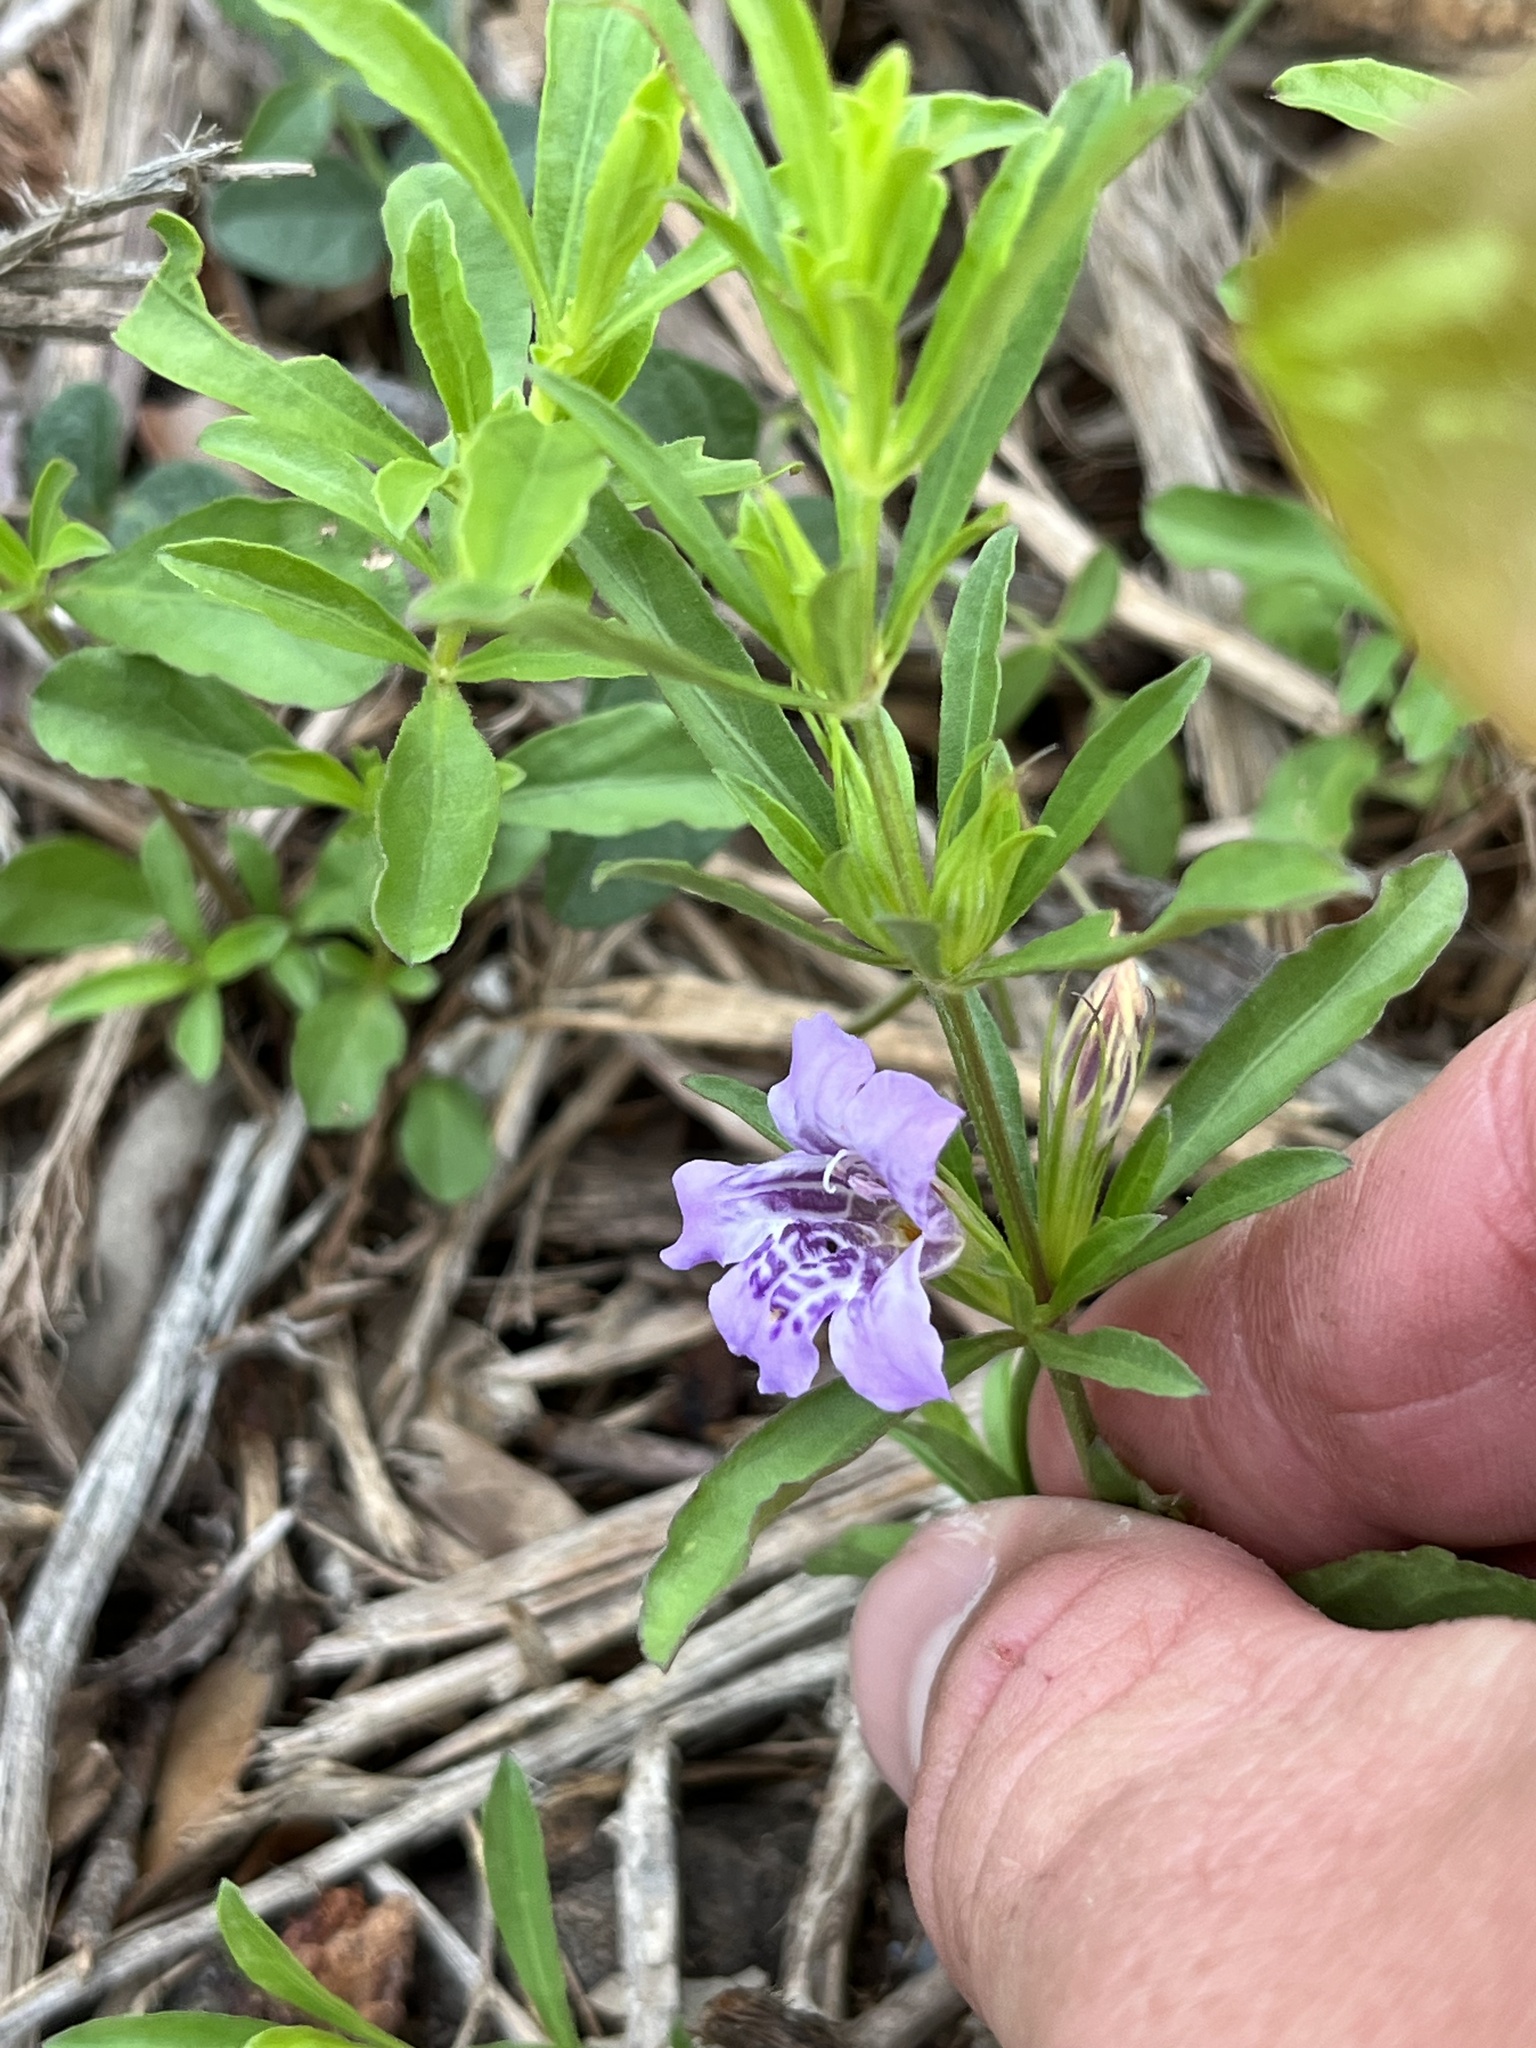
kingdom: Plantae
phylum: Tracheophyta
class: Magnoliopsida
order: Lamiales
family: Acanthaceae
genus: Dyschoriste
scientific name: Dyschoriste linearis
